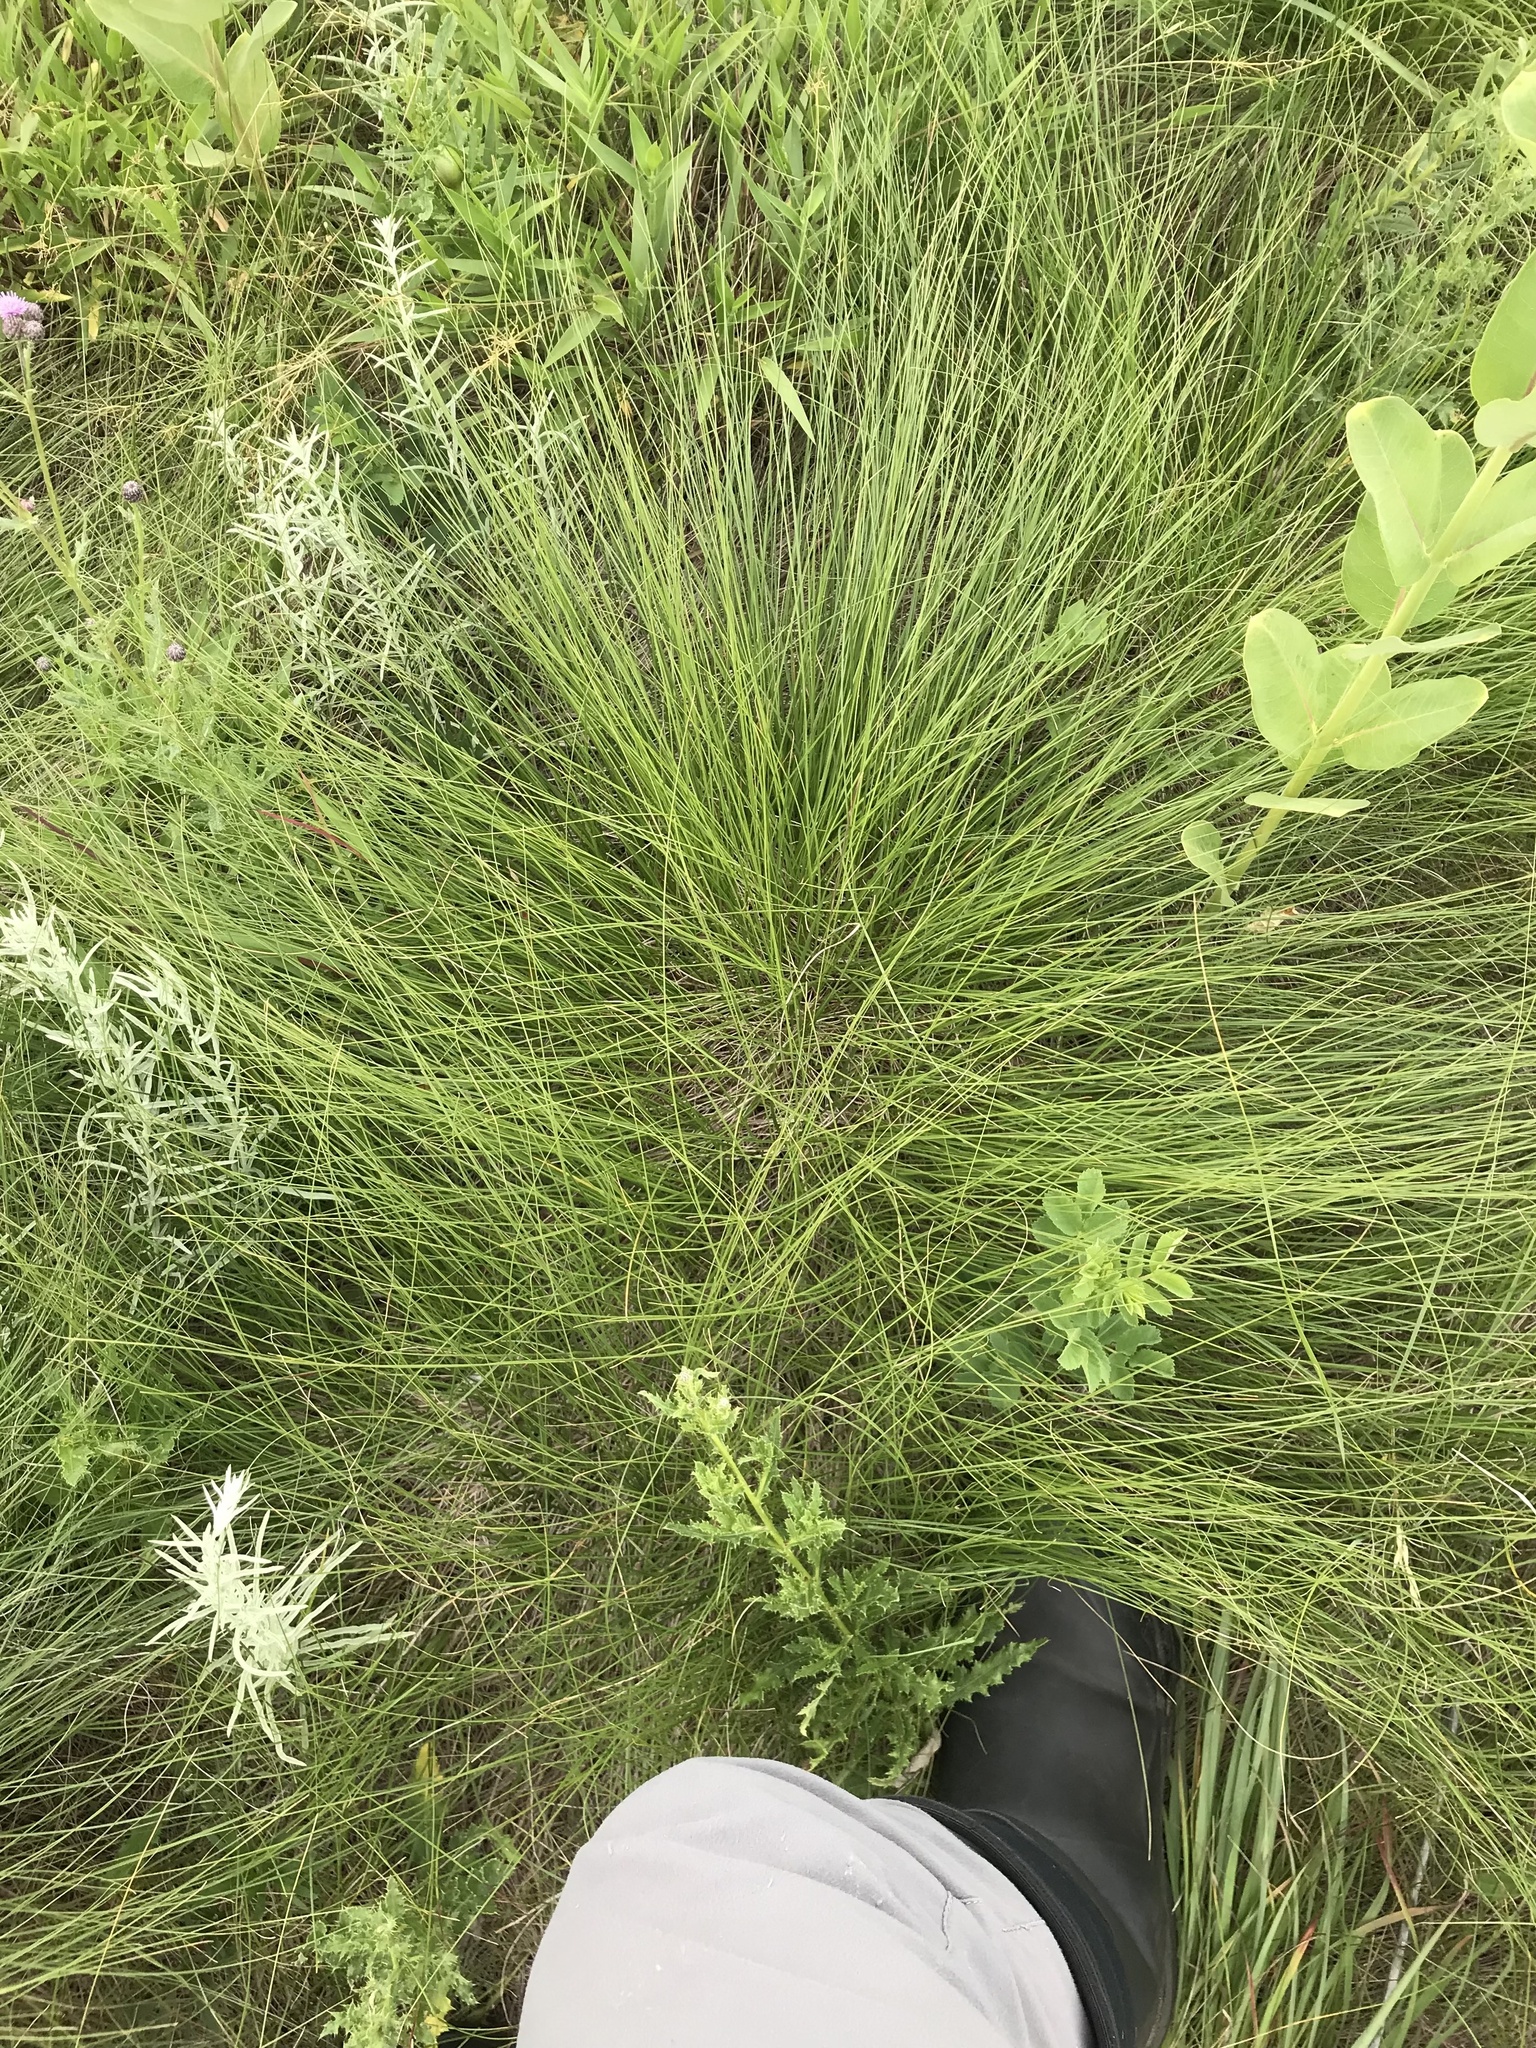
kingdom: Plantae
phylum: Tracheophyta
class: Liliopsida
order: Poales
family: Poaceae
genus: Sporobolus
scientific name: Sporobolus heterolepis
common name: Prairie dropseed
